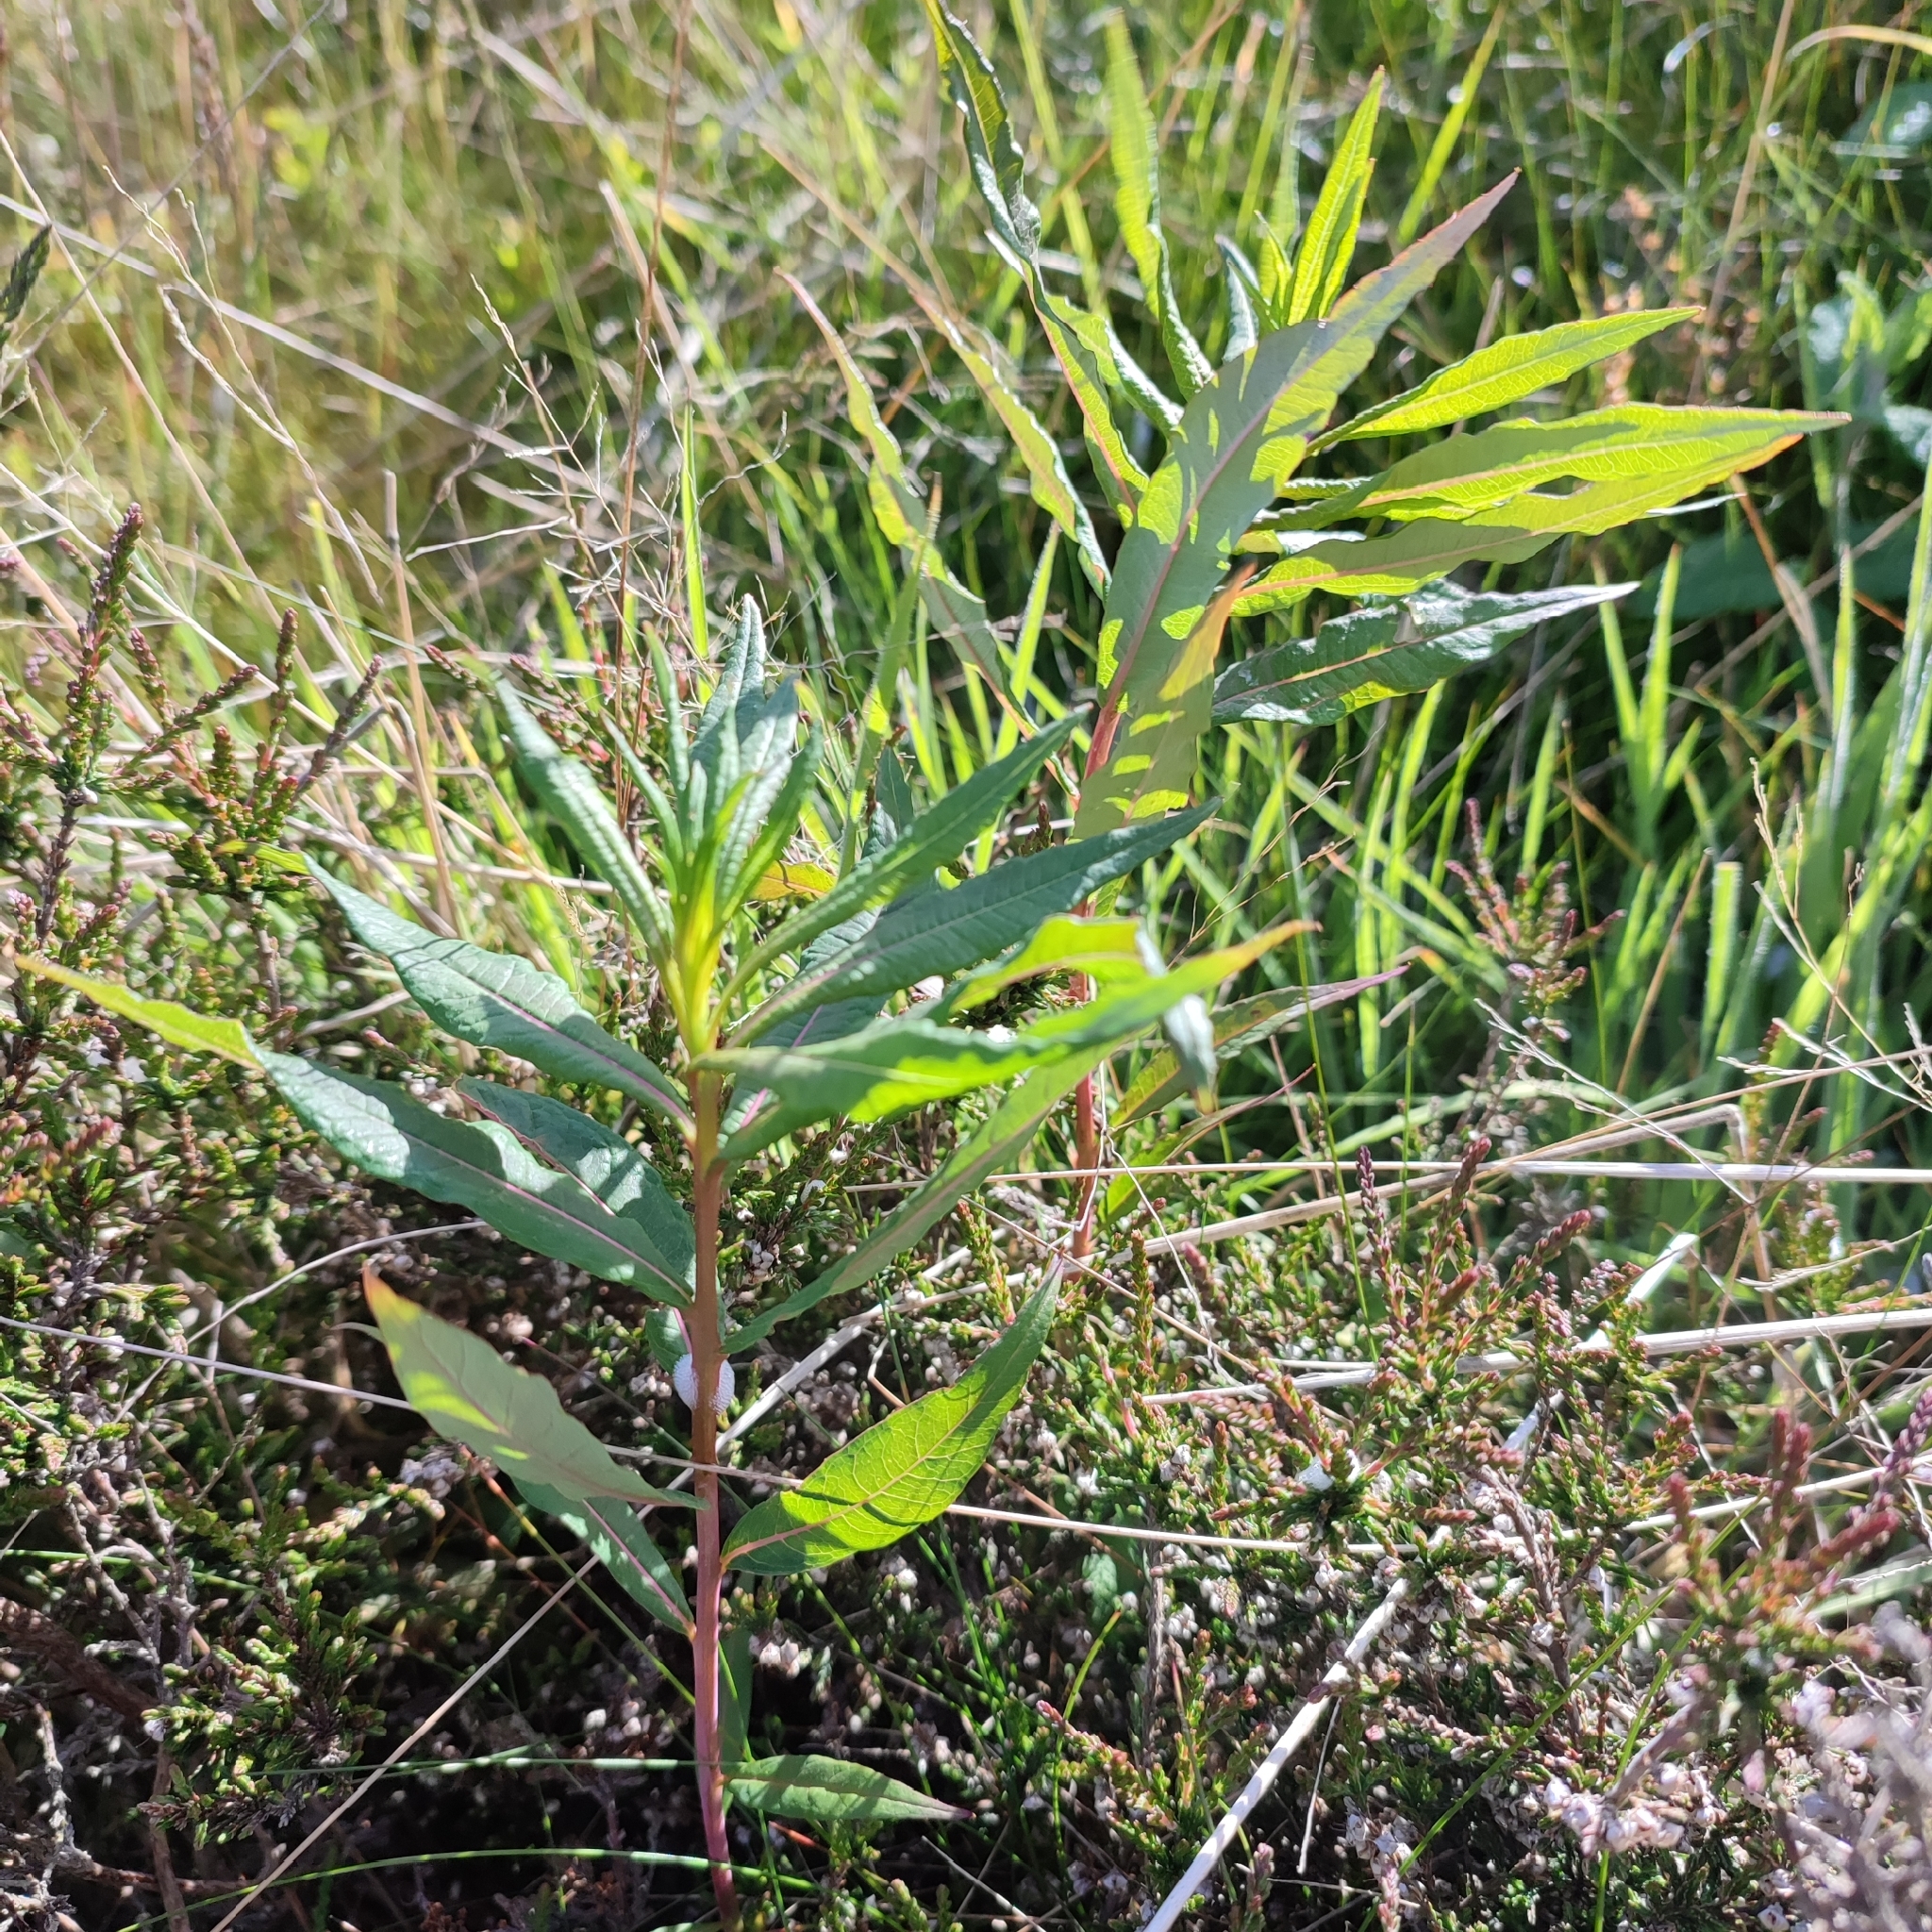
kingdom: Plantae
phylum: Tracheophyta
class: Magnoliopsida
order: Myrtales
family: Onagraceae
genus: Chamaenerion
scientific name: Chamaenerion angustifolium
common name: Fireweed
